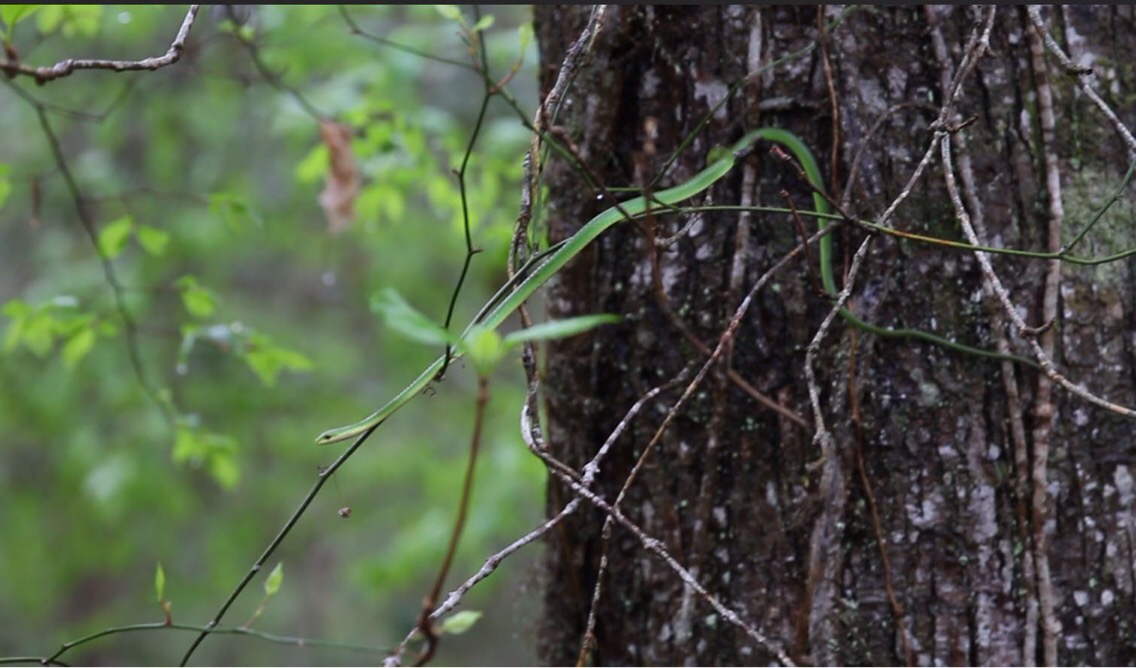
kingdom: Animalia
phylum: Chordata
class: Squamata
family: Colubridae
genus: Opheodrys
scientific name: Opheodrys aestivus
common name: Rough greensnake
